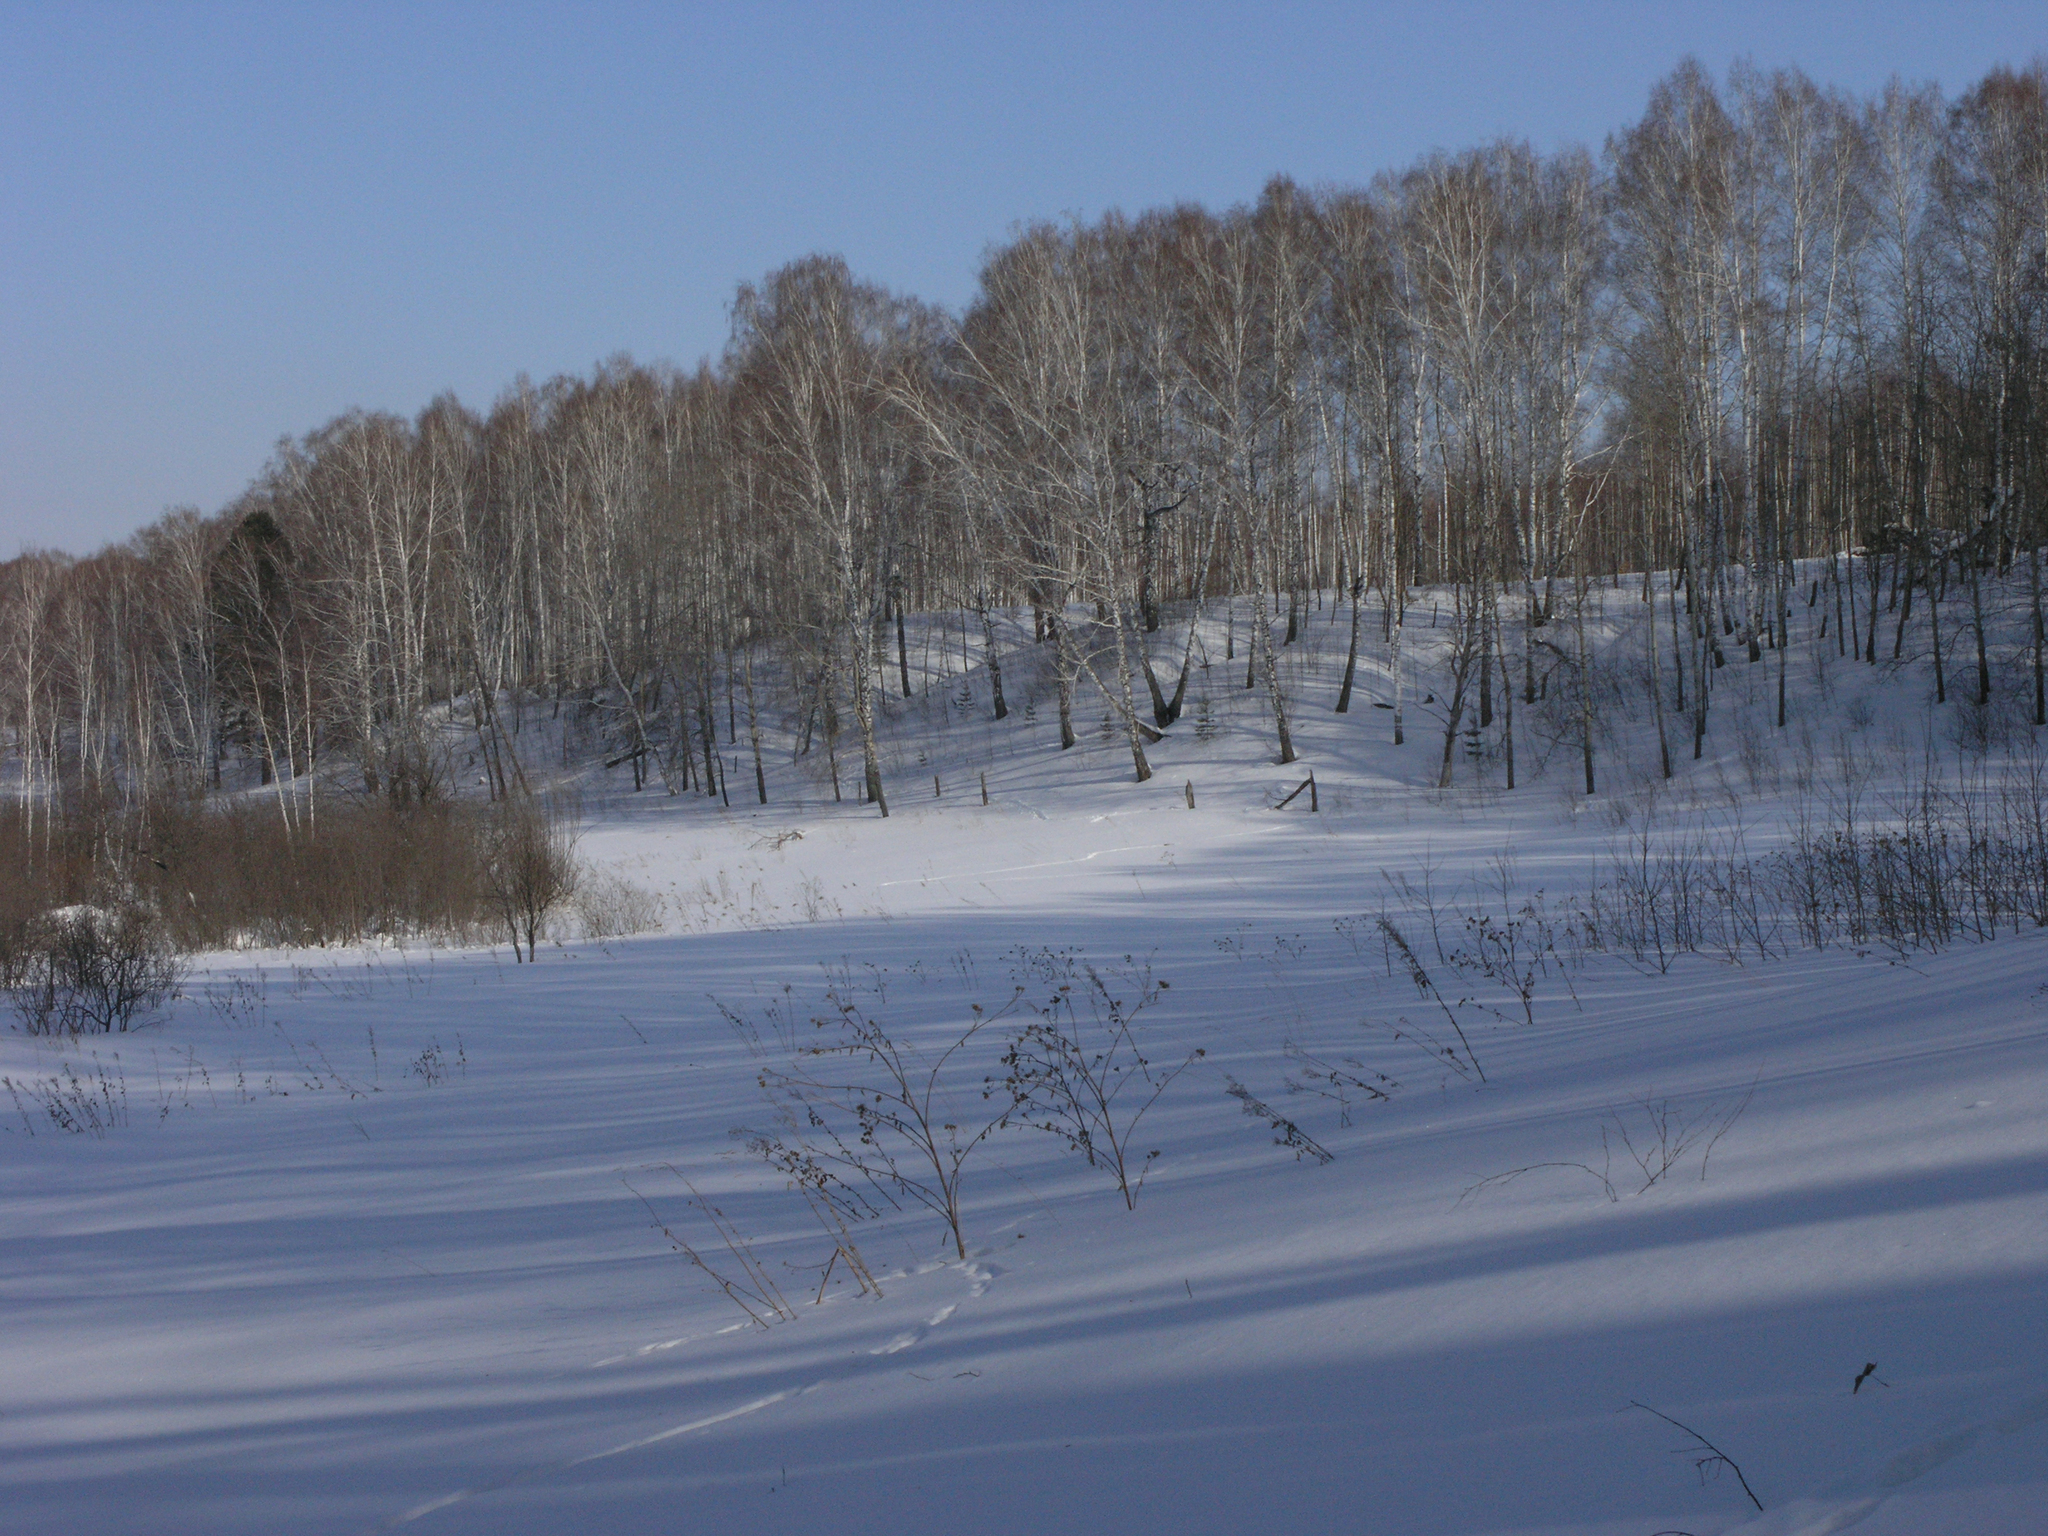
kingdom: Plantae
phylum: Tracheophyta
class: Magnoliopsida
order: Fagales
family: Betulaceae
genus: Betula
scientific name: Betula pendula
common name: Silver birch
